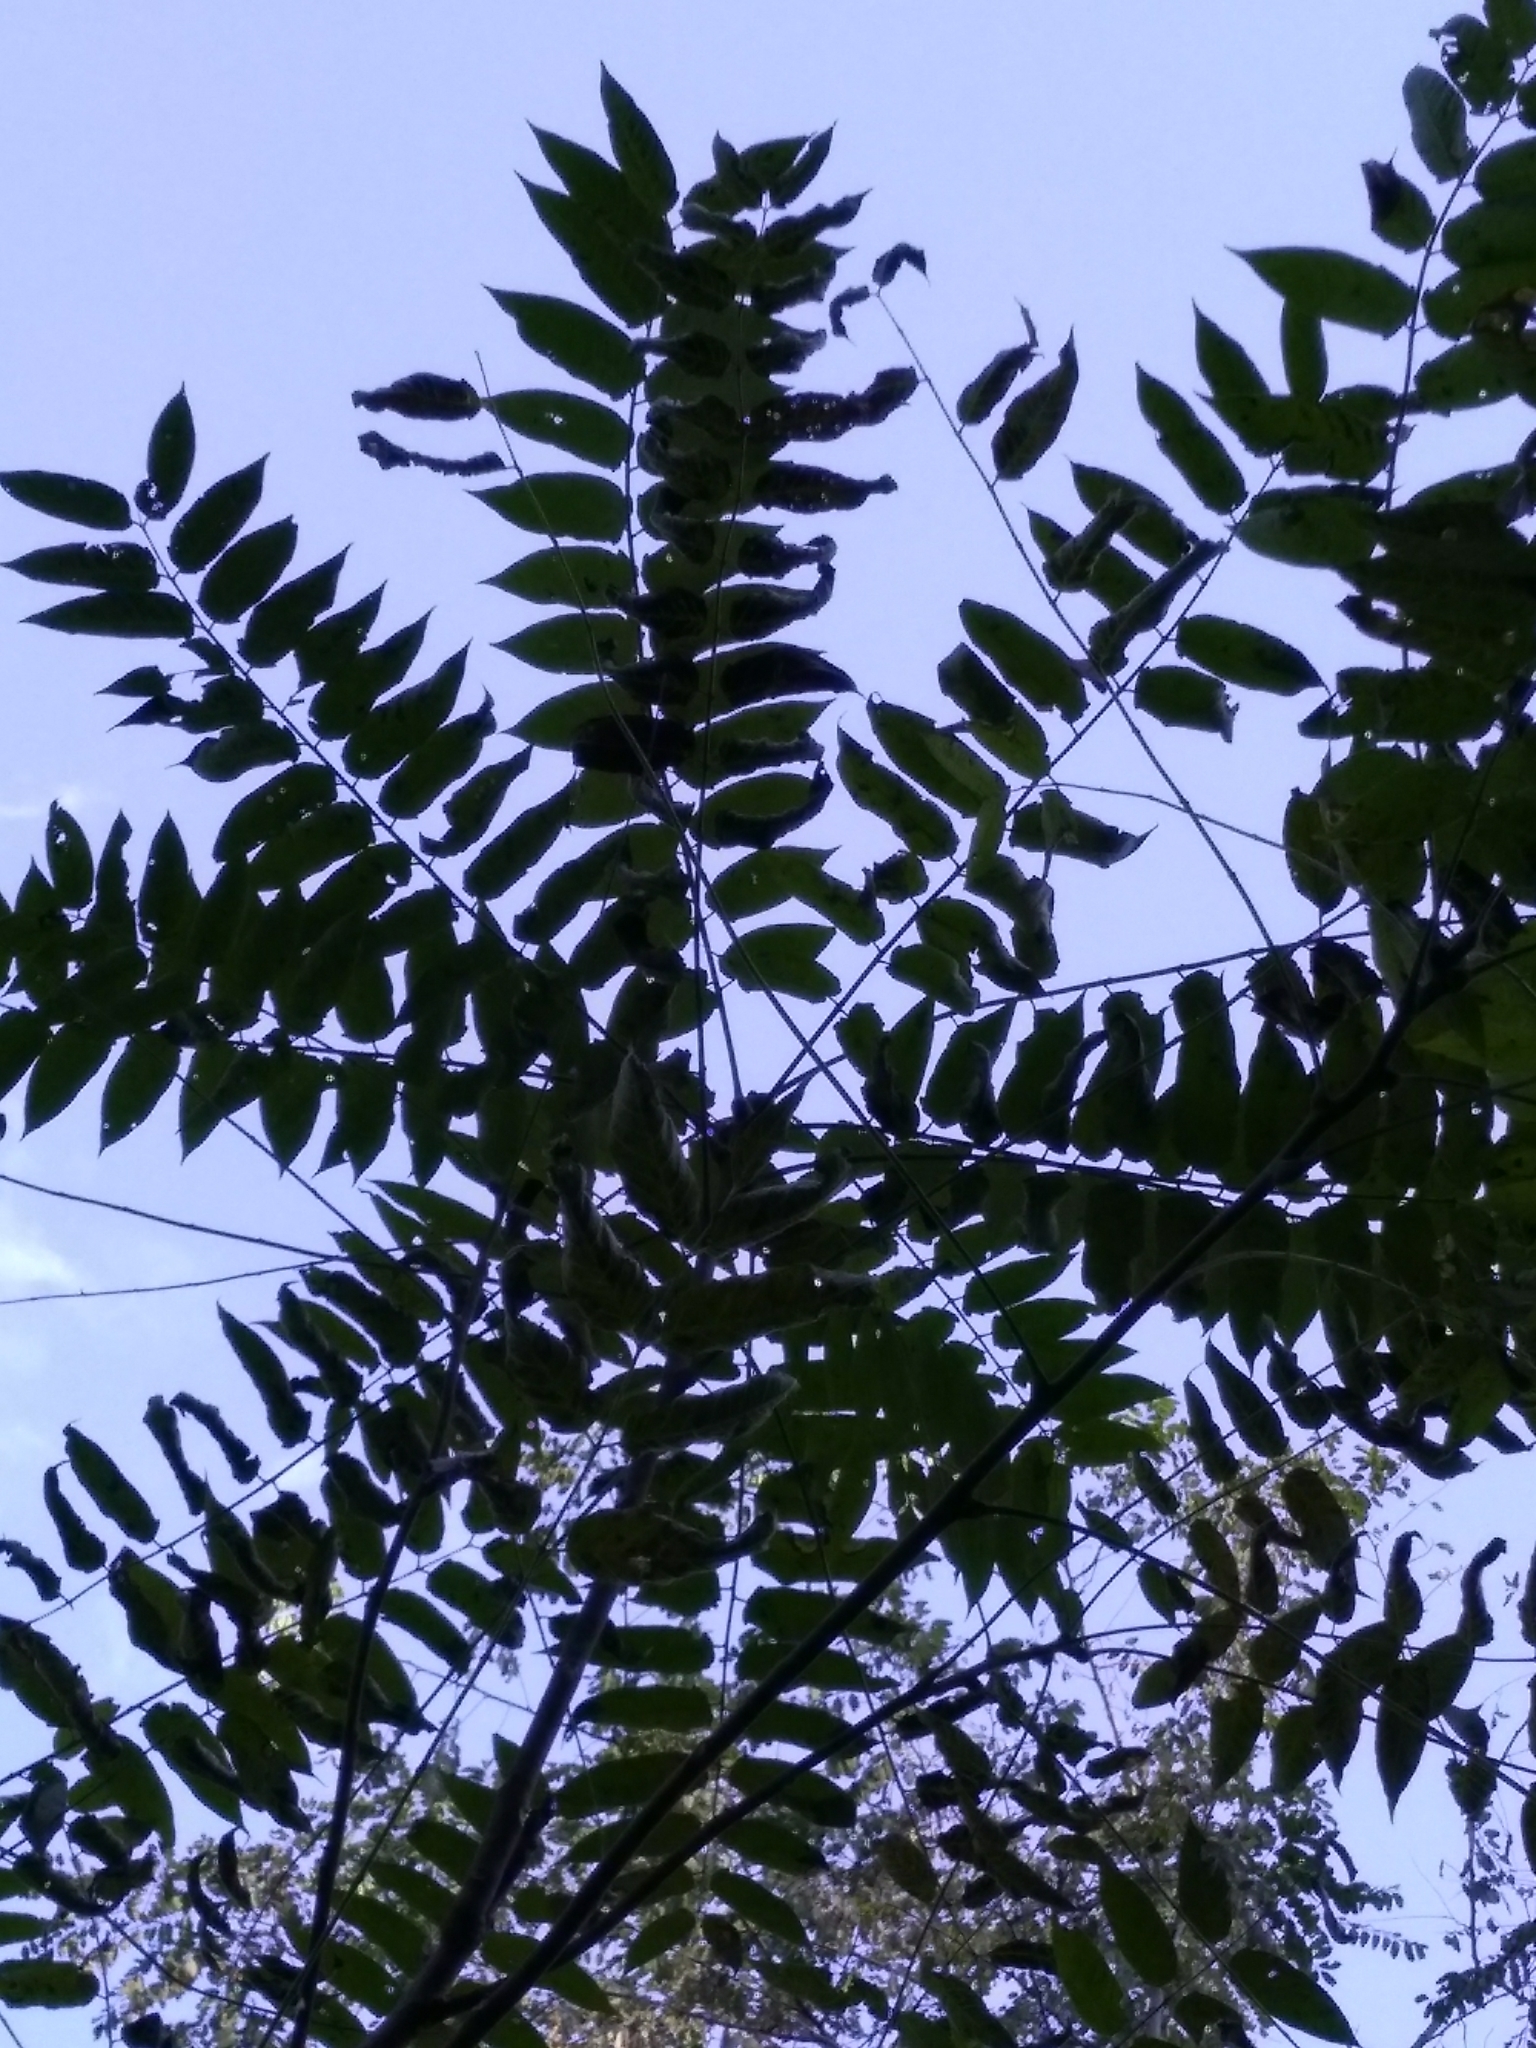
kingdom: Plantae
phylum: Tracheophyta
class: Magnoliopsida
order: Sapindales
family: Simaroubaceae
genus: Ailanthus
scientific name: Ailanthus altissima
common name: Tree-of-heaven
